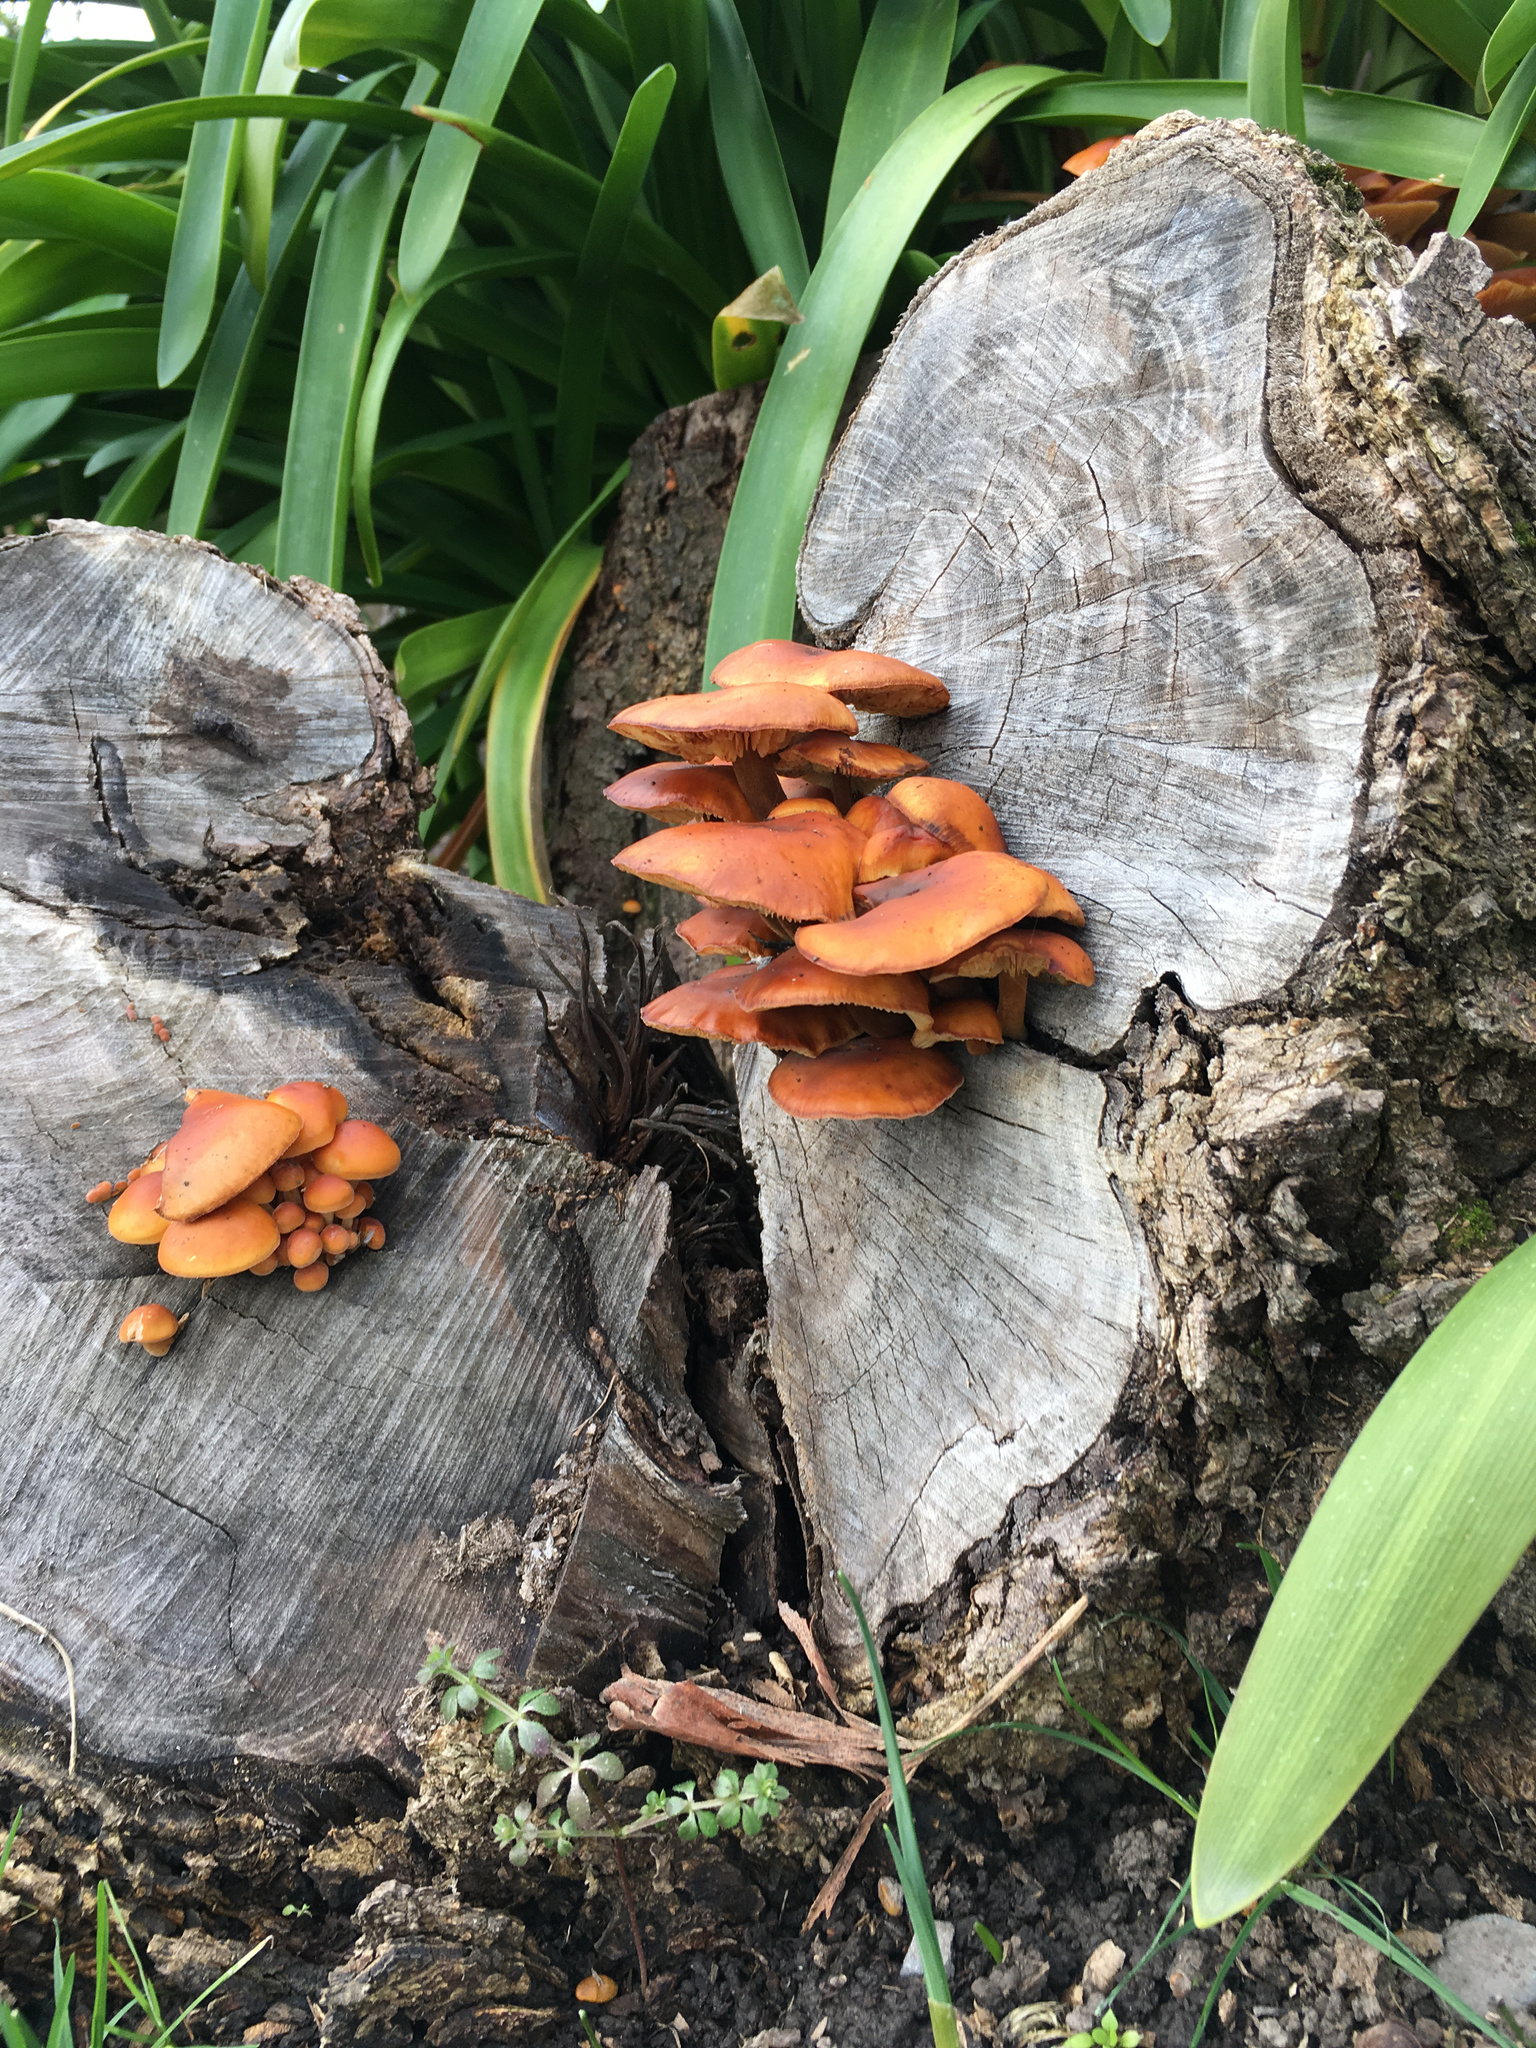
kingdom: Fungi
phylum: Basidiomycota
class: Agaricomycetes
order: Agaricales
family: Physalacriaceae
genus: Flammulina
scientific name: Flammulina velutipes
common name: Velvet shank
